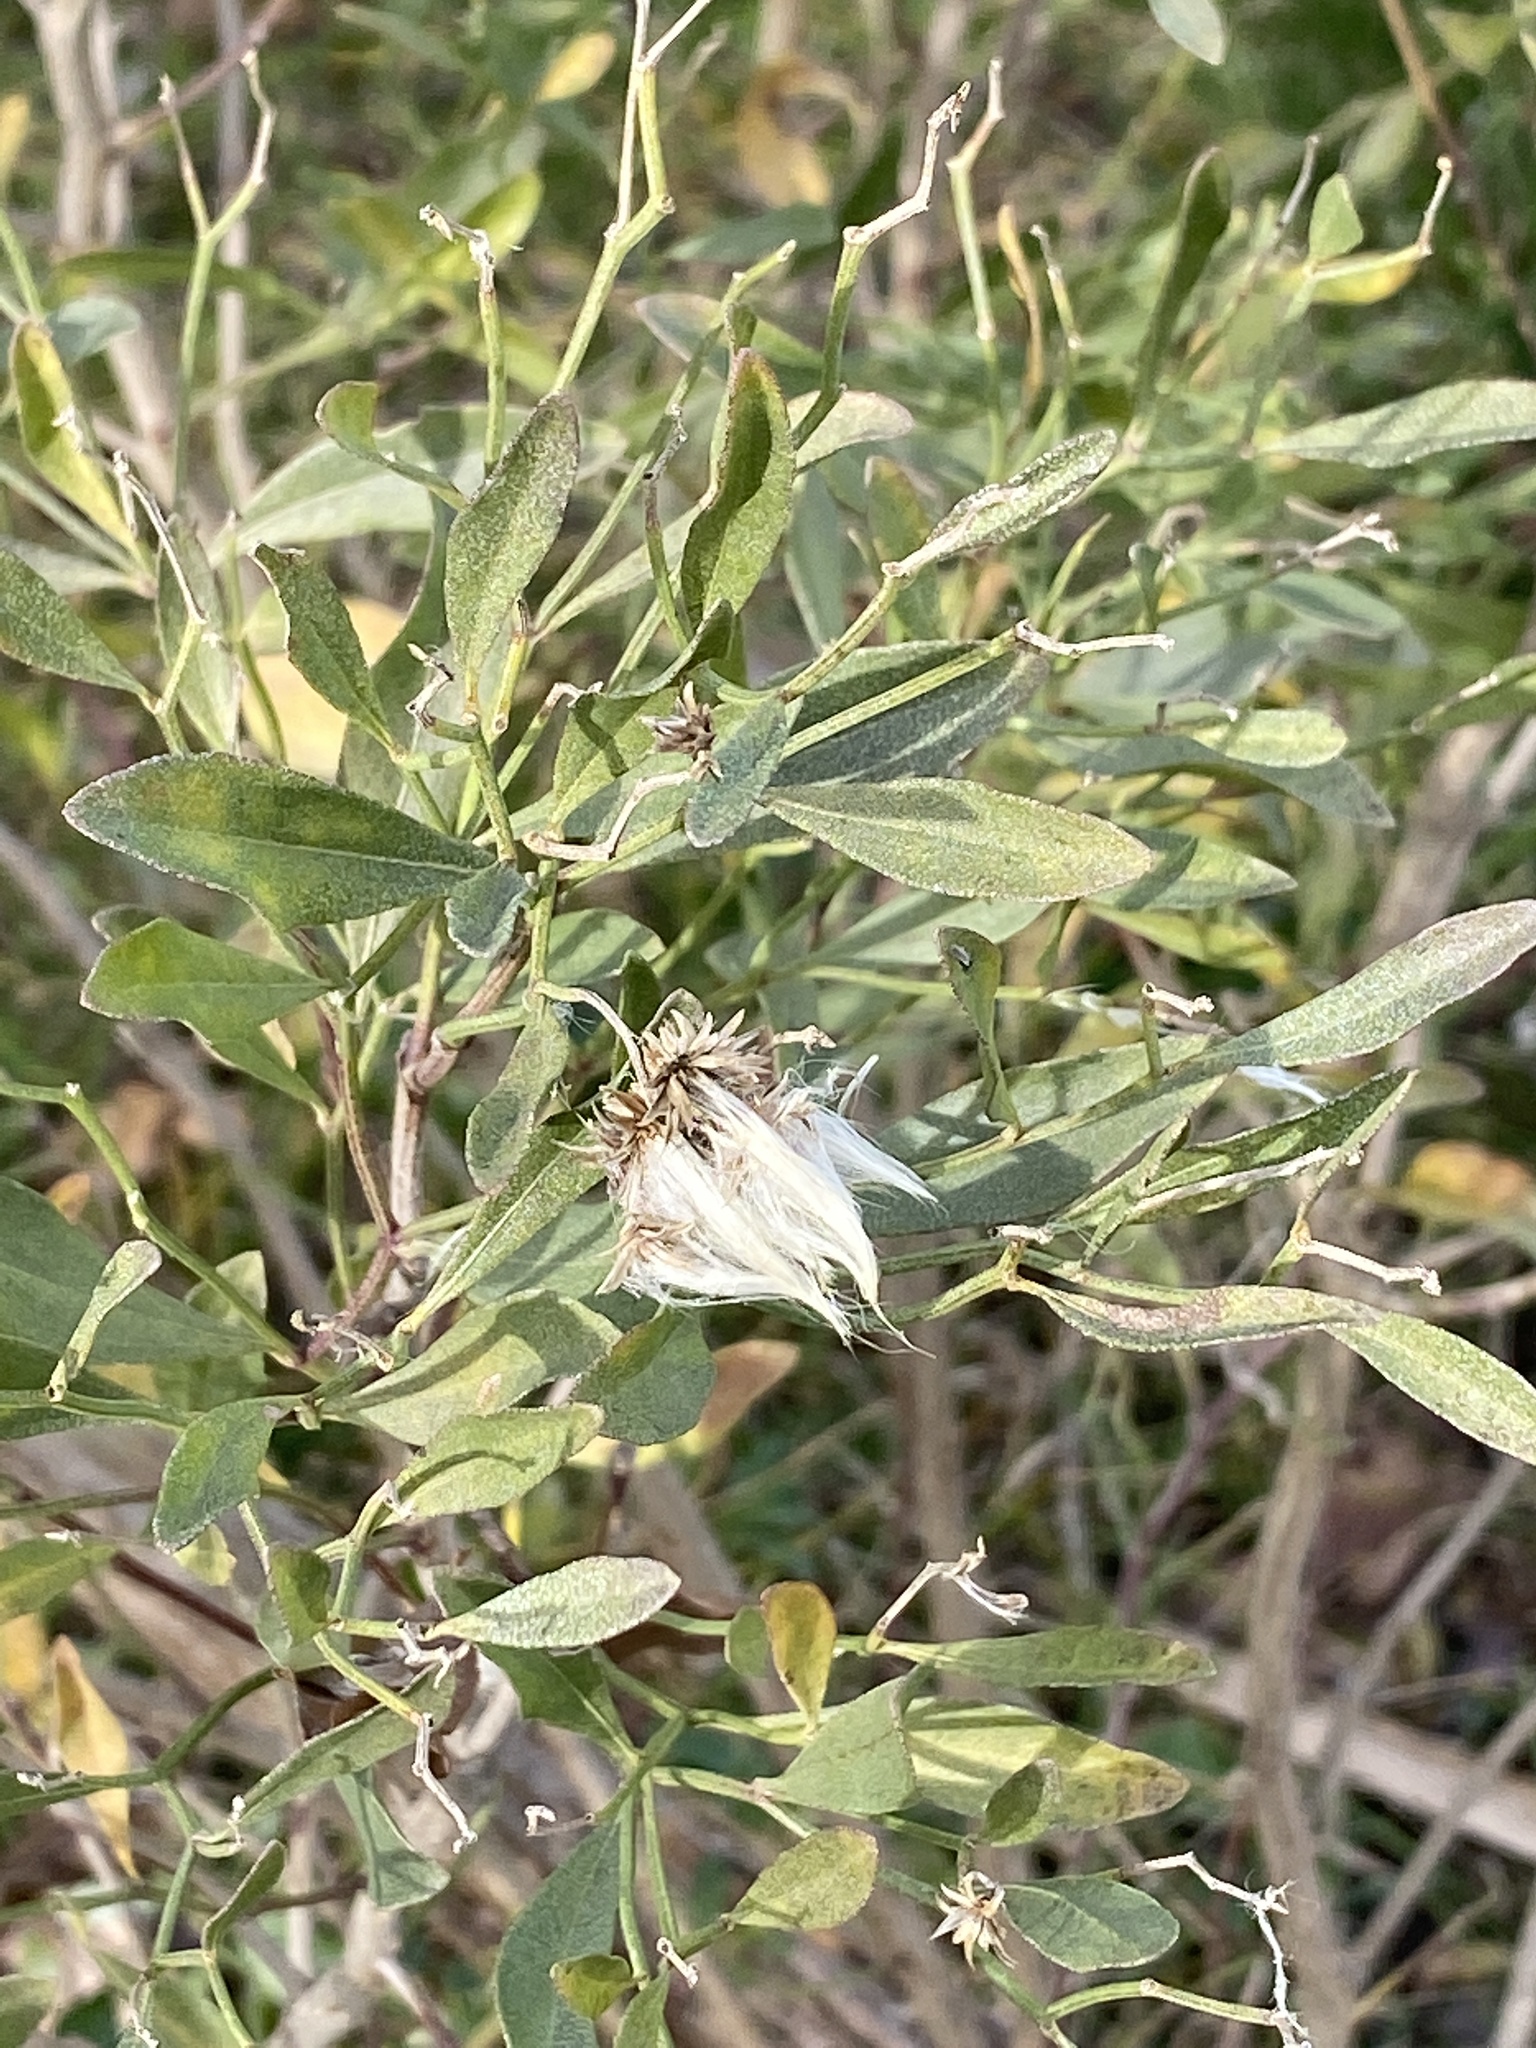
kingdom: Plantae
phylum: Tracheophyta
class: Magnoliopsida
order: Asterales
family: Asteraceae
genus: Baccharis
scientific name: Baccharis halimifolia
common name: Eastern baccharis
